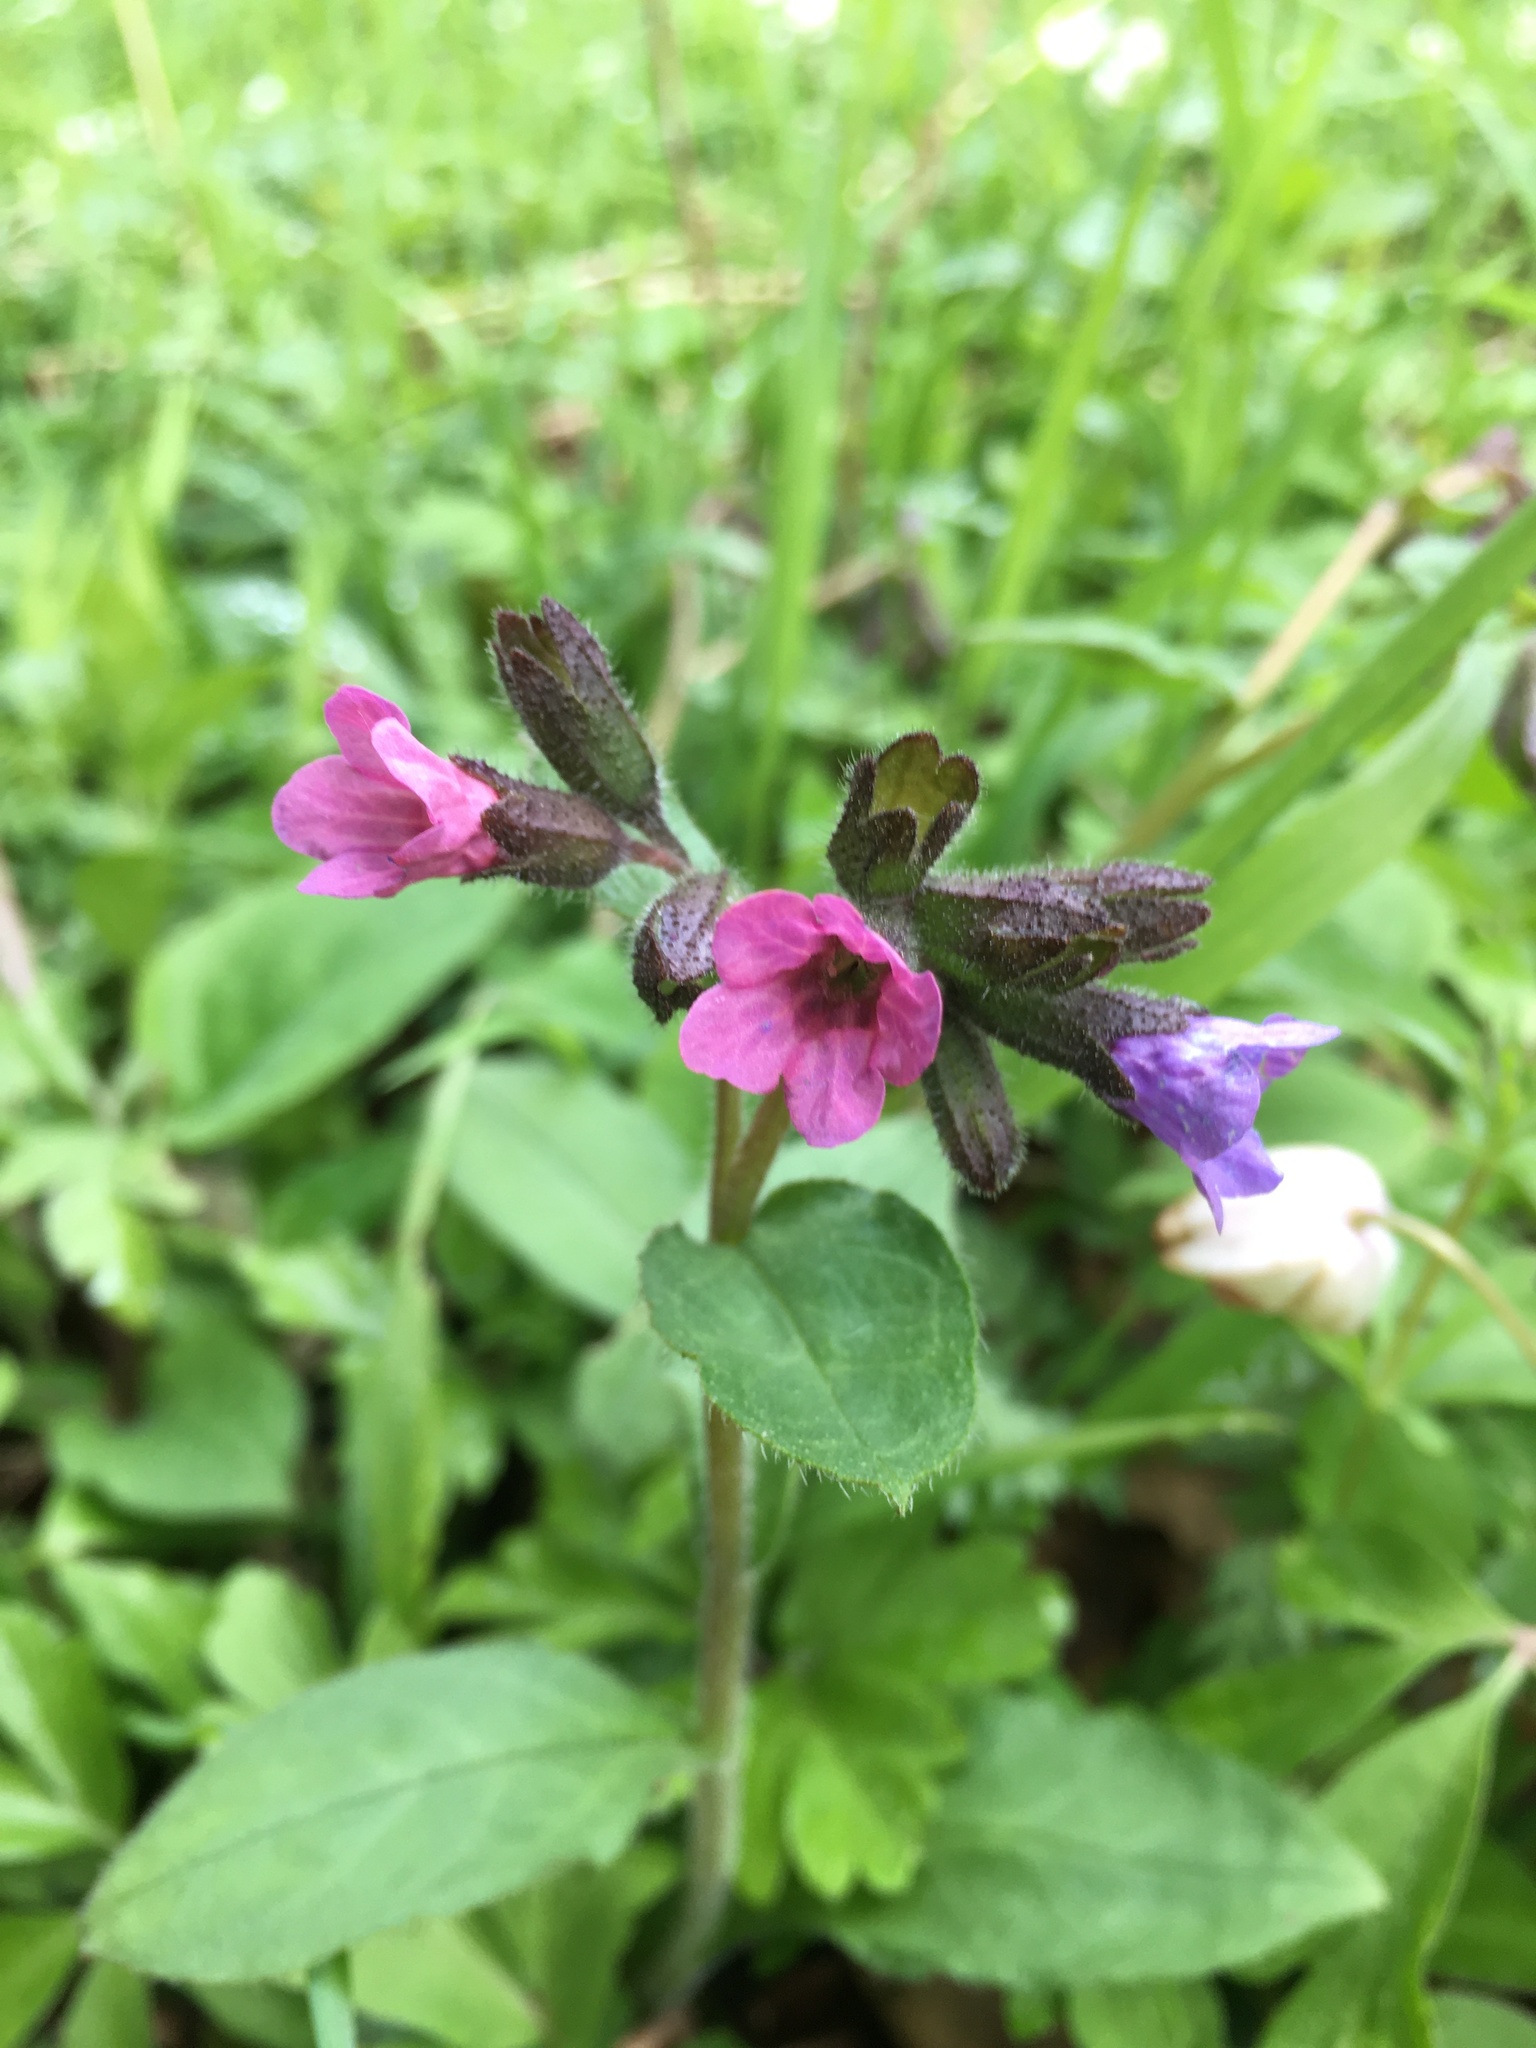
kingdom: Plantae
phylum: Tracheophyta
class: Magnoliopsida
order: Boraginales
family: Boraginaceae
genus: Pulmonaria
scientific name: Pulmonaria obscura
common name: Suffolk lungwort
